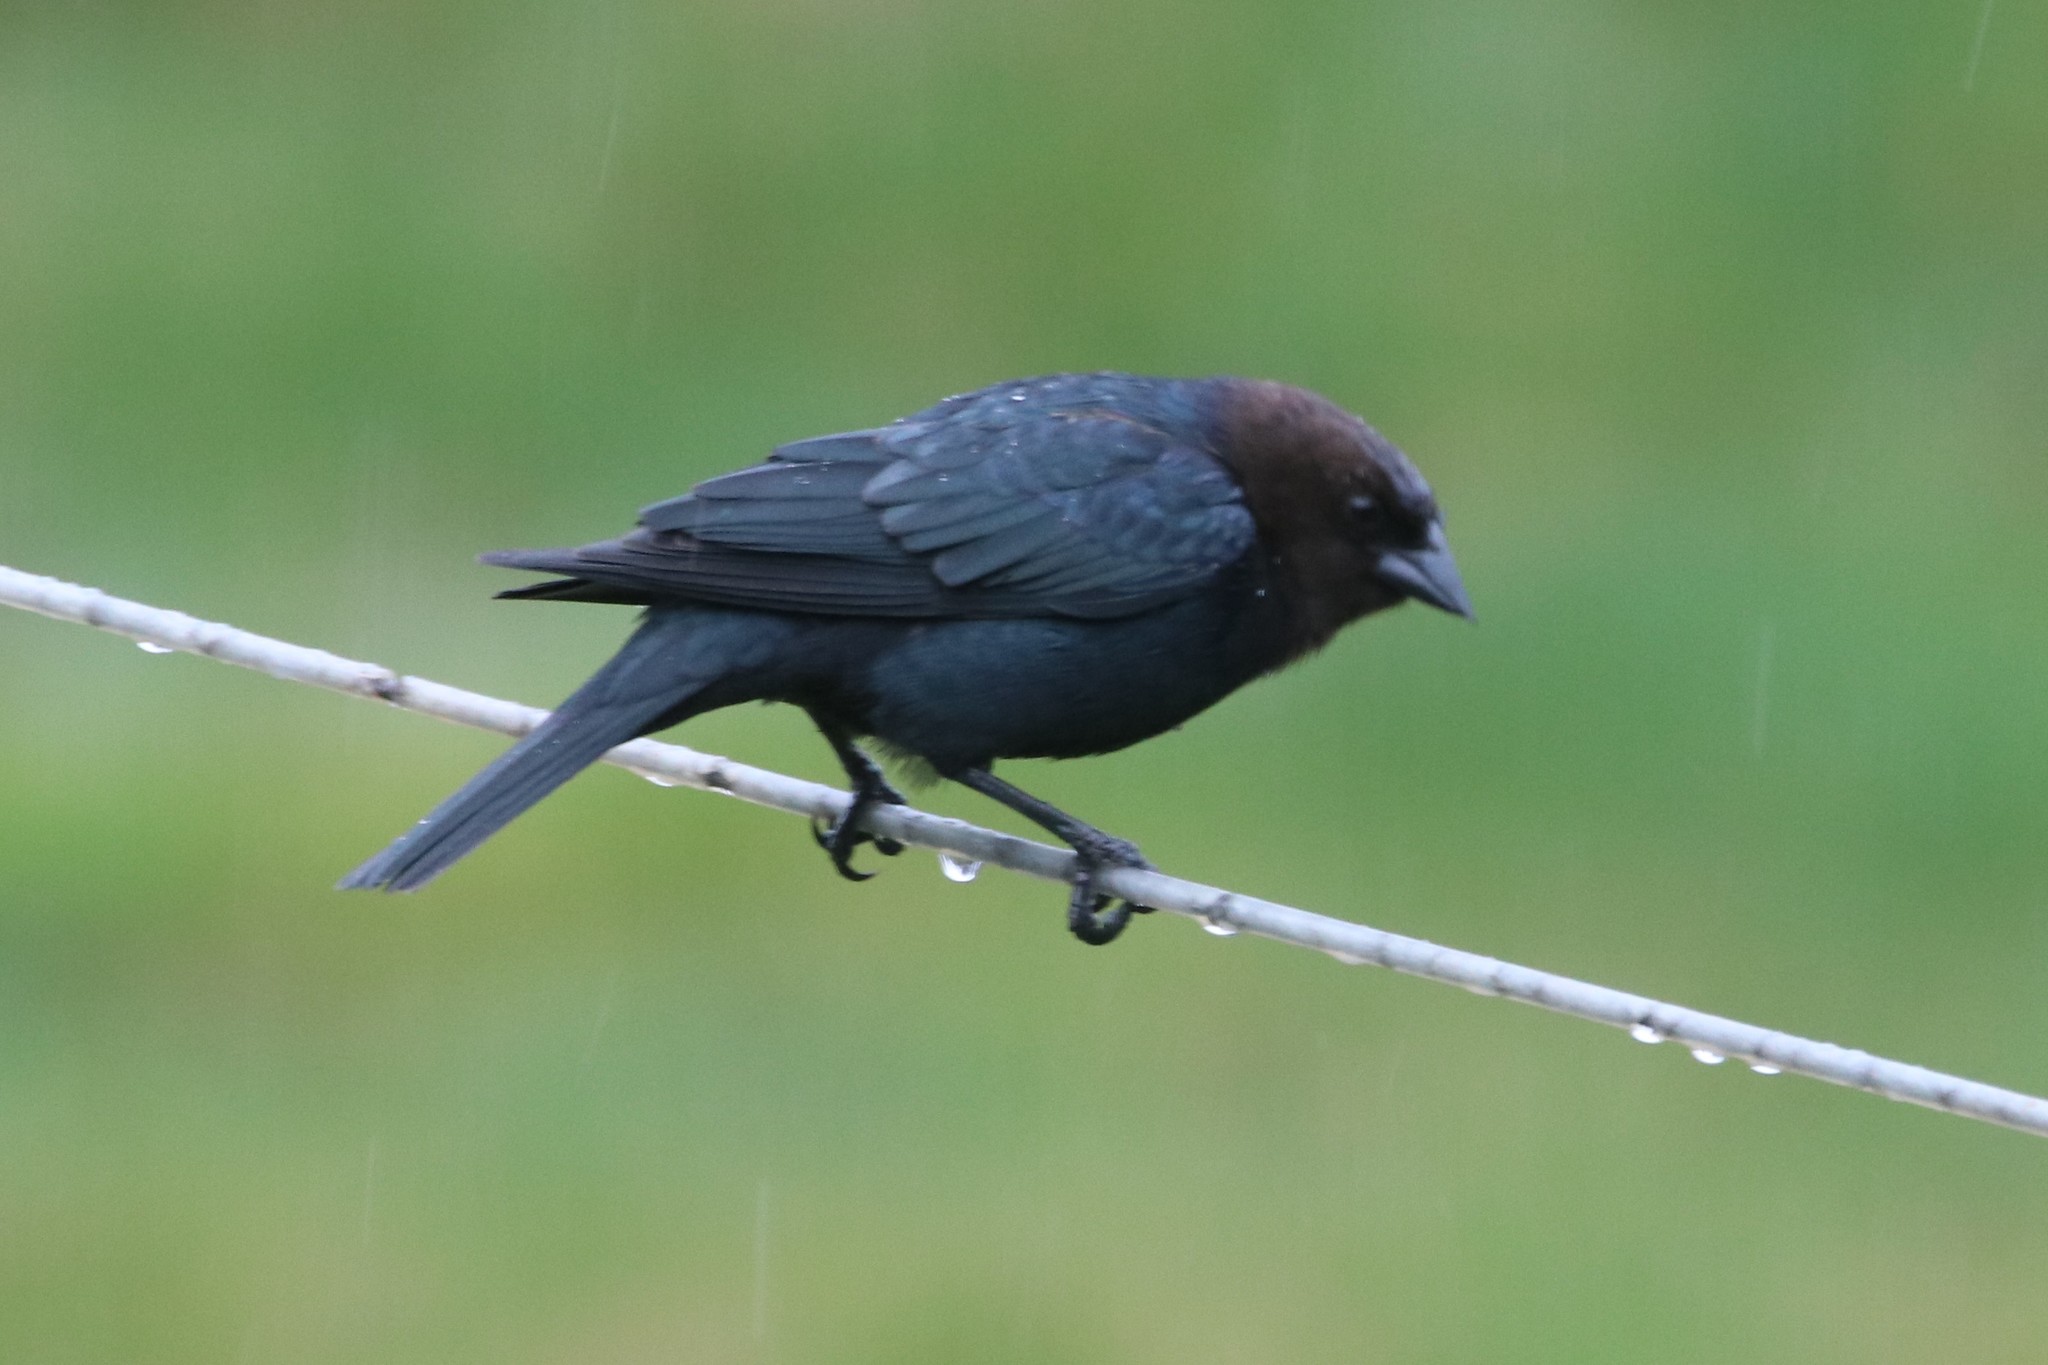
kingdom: Animalia
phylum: Chordata
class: Aves
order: Passeriformes
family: Icteridae
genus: Molothrus
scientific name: Molothrus ater
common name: Brown-headed cowbird
